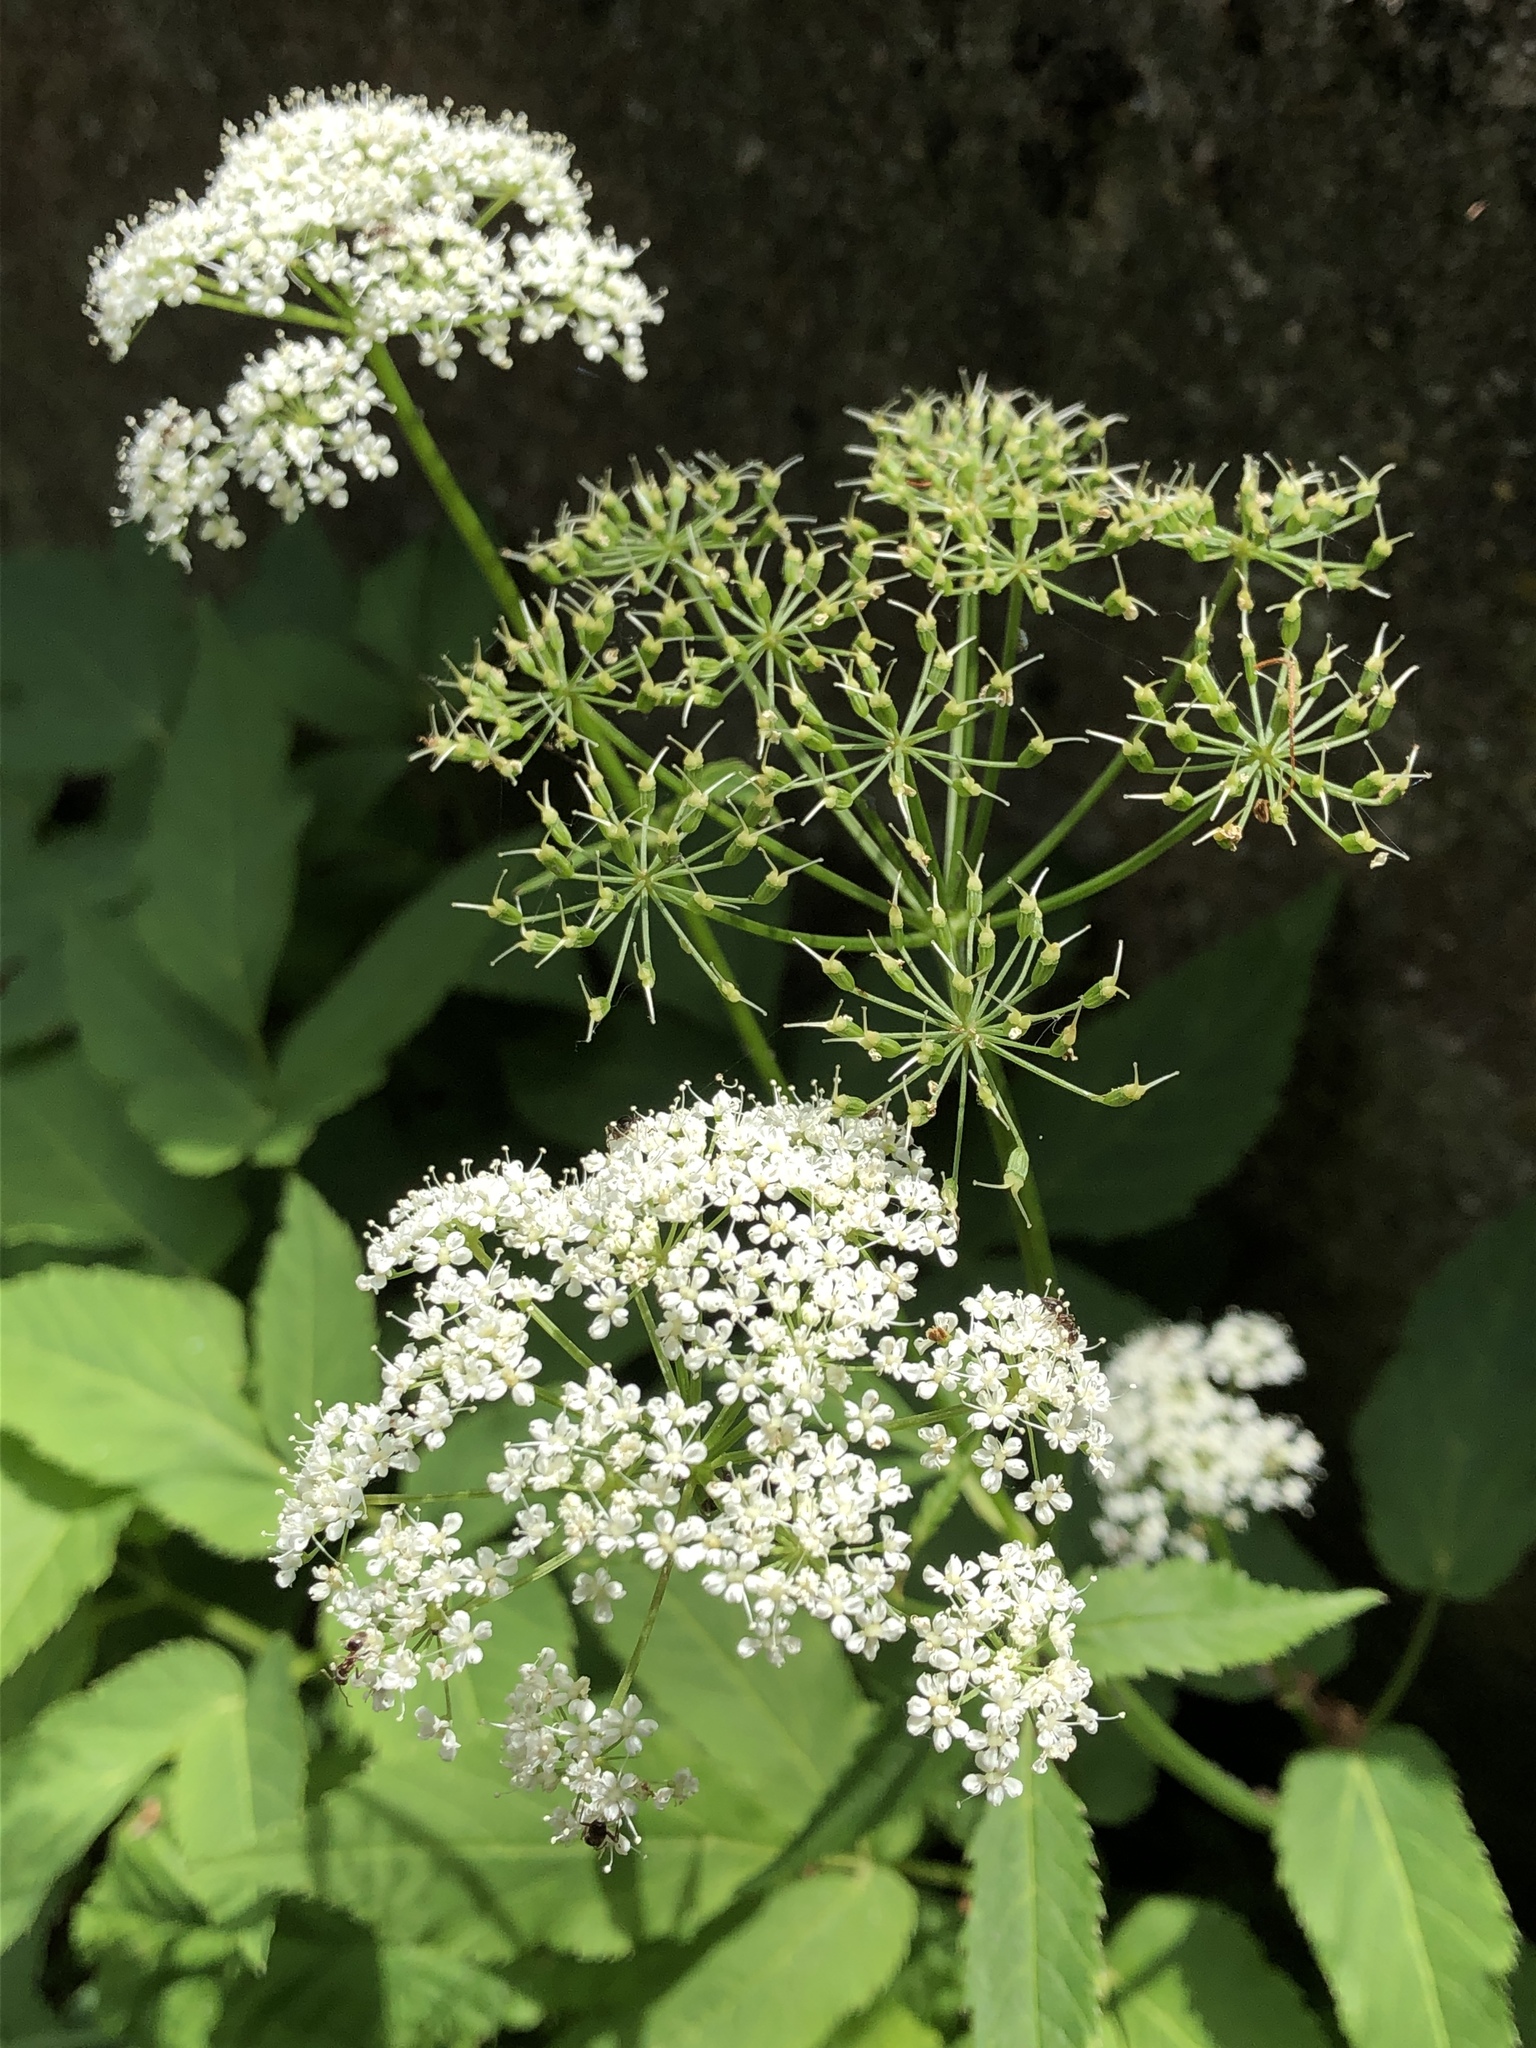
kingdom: Plantae
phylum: Tracheophyta
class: Magnoliopsida
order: Apiales
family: Apiaceae
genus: Aegopodium
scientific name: Aegopodium podagraria
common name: Ground-elder
